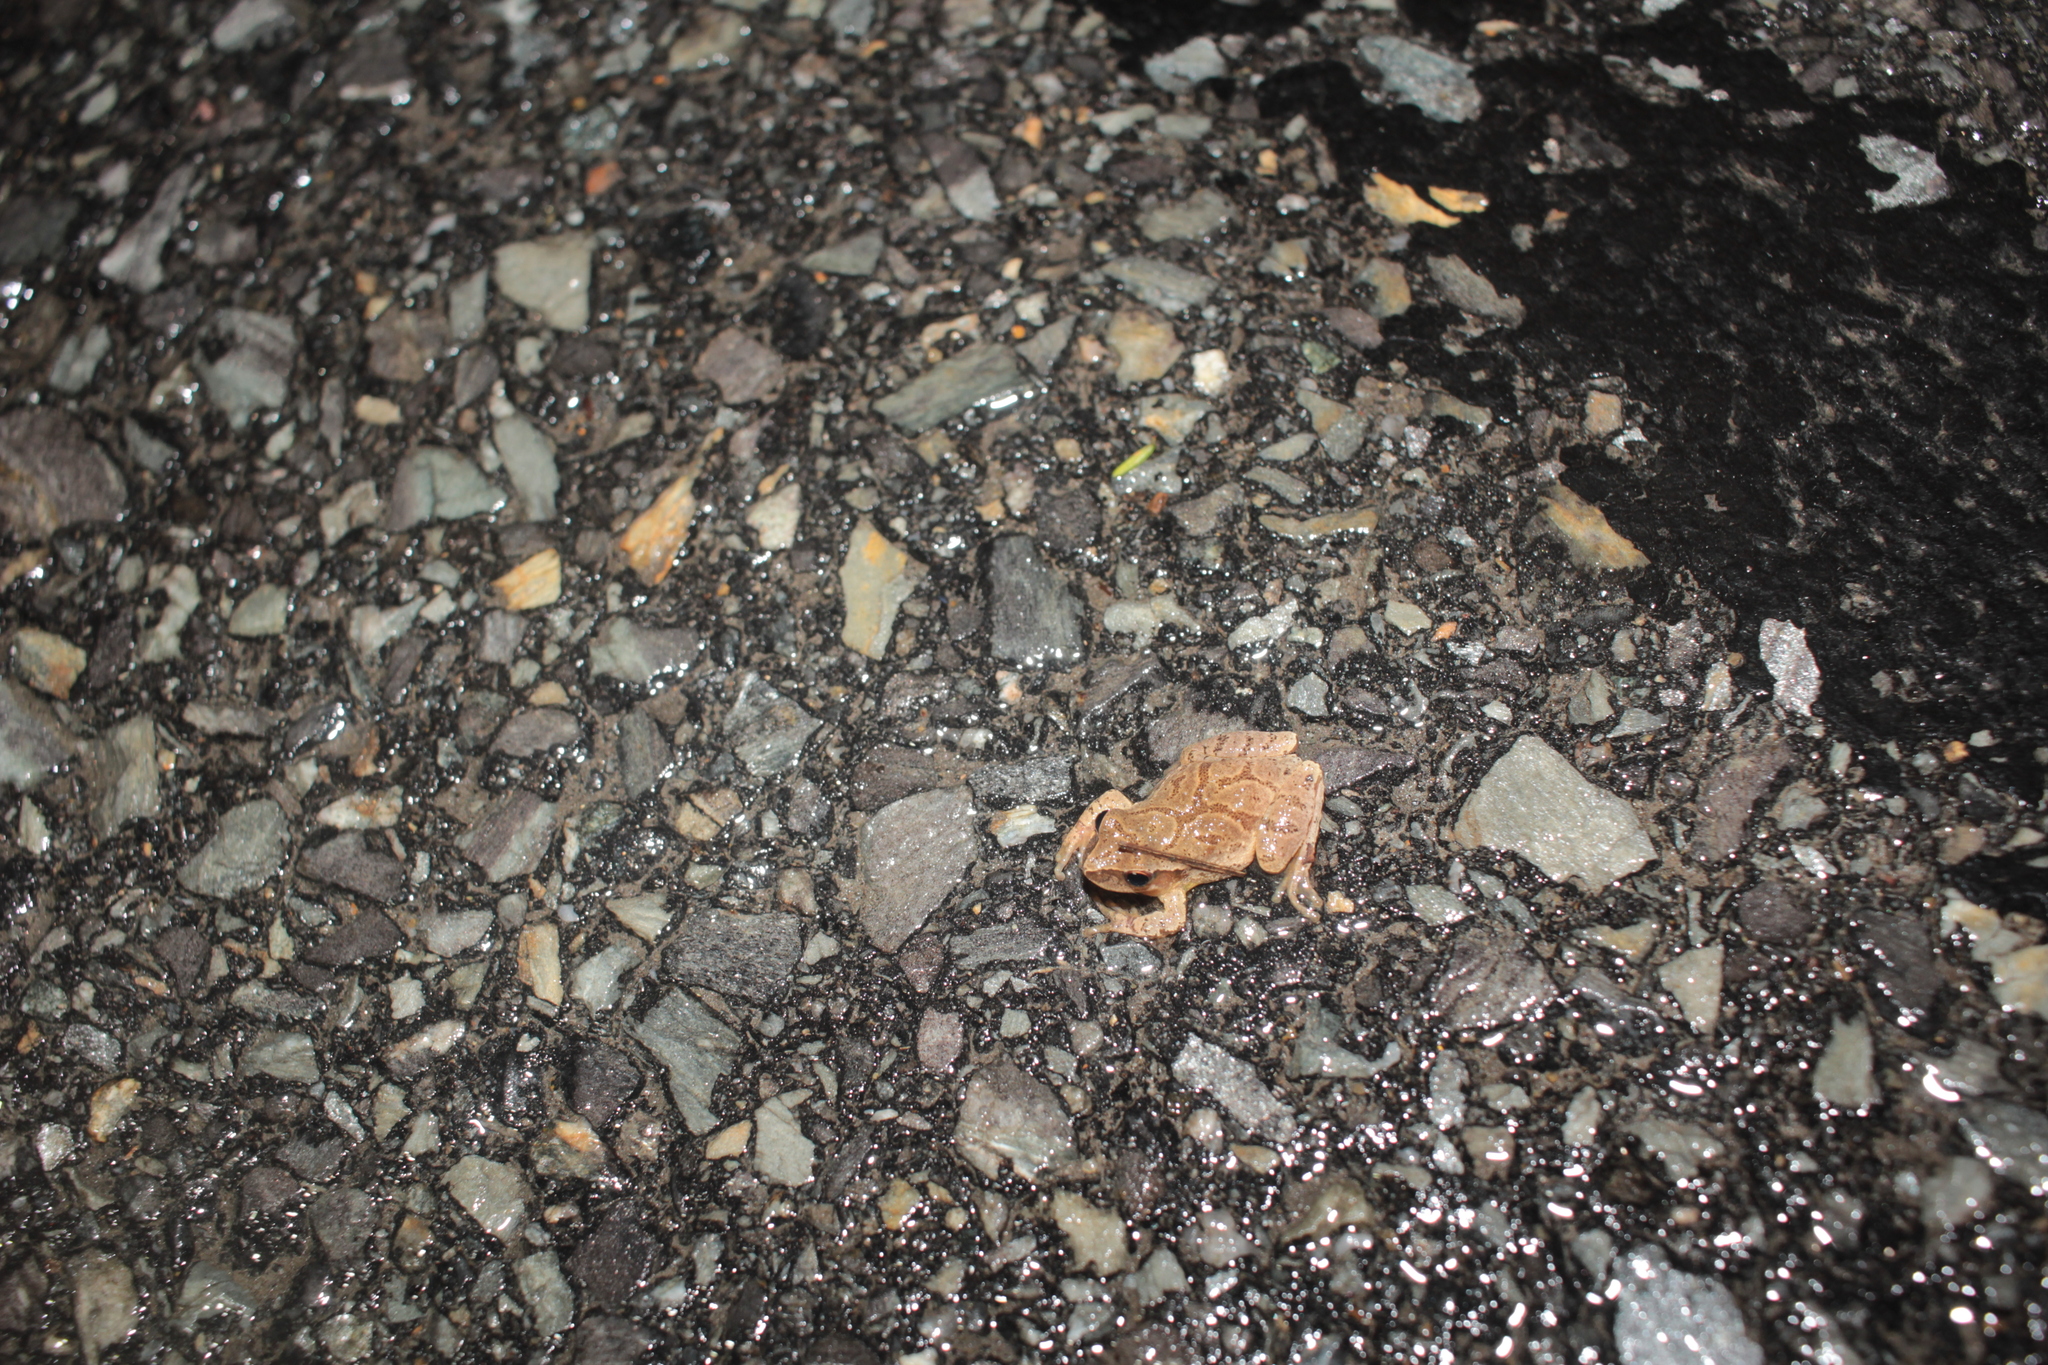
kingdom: Animalia
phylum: Chordata
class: Amphibia
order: Anura
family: Hylidae
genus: Pseudacris
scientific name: Pseudacris crucifer
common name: Spring peeper
